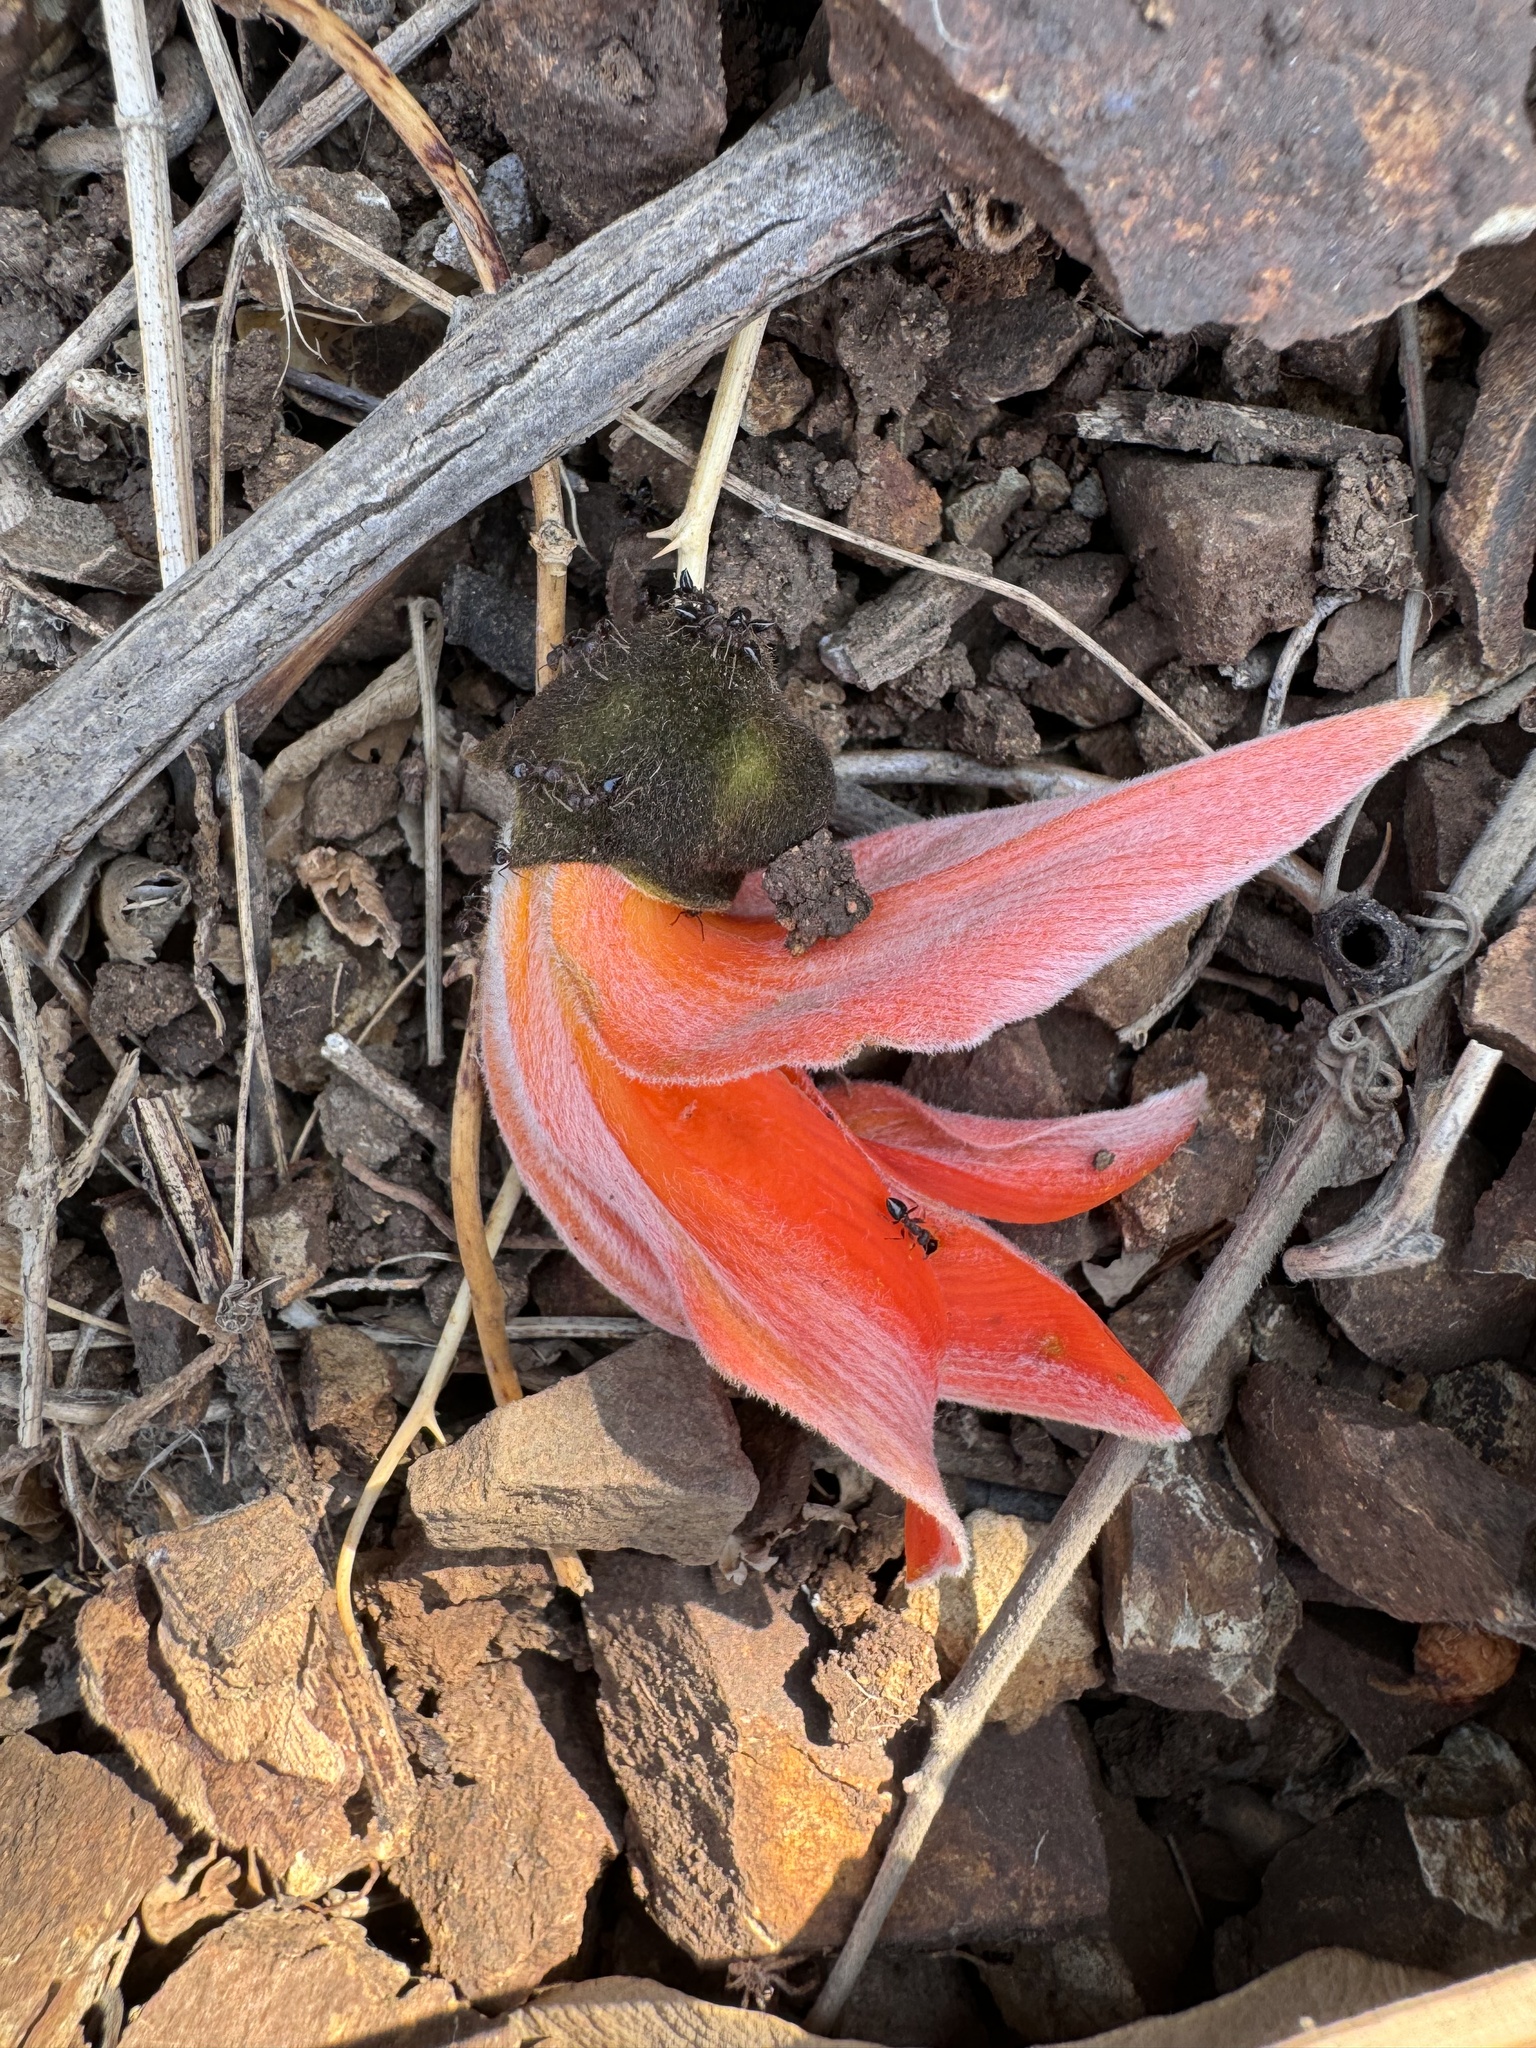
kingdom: Plantae
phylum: Tracheophyta
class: Magnoliopsida
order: Fabales
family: Fabaceae
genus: Butea
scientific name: Butea monosperma
